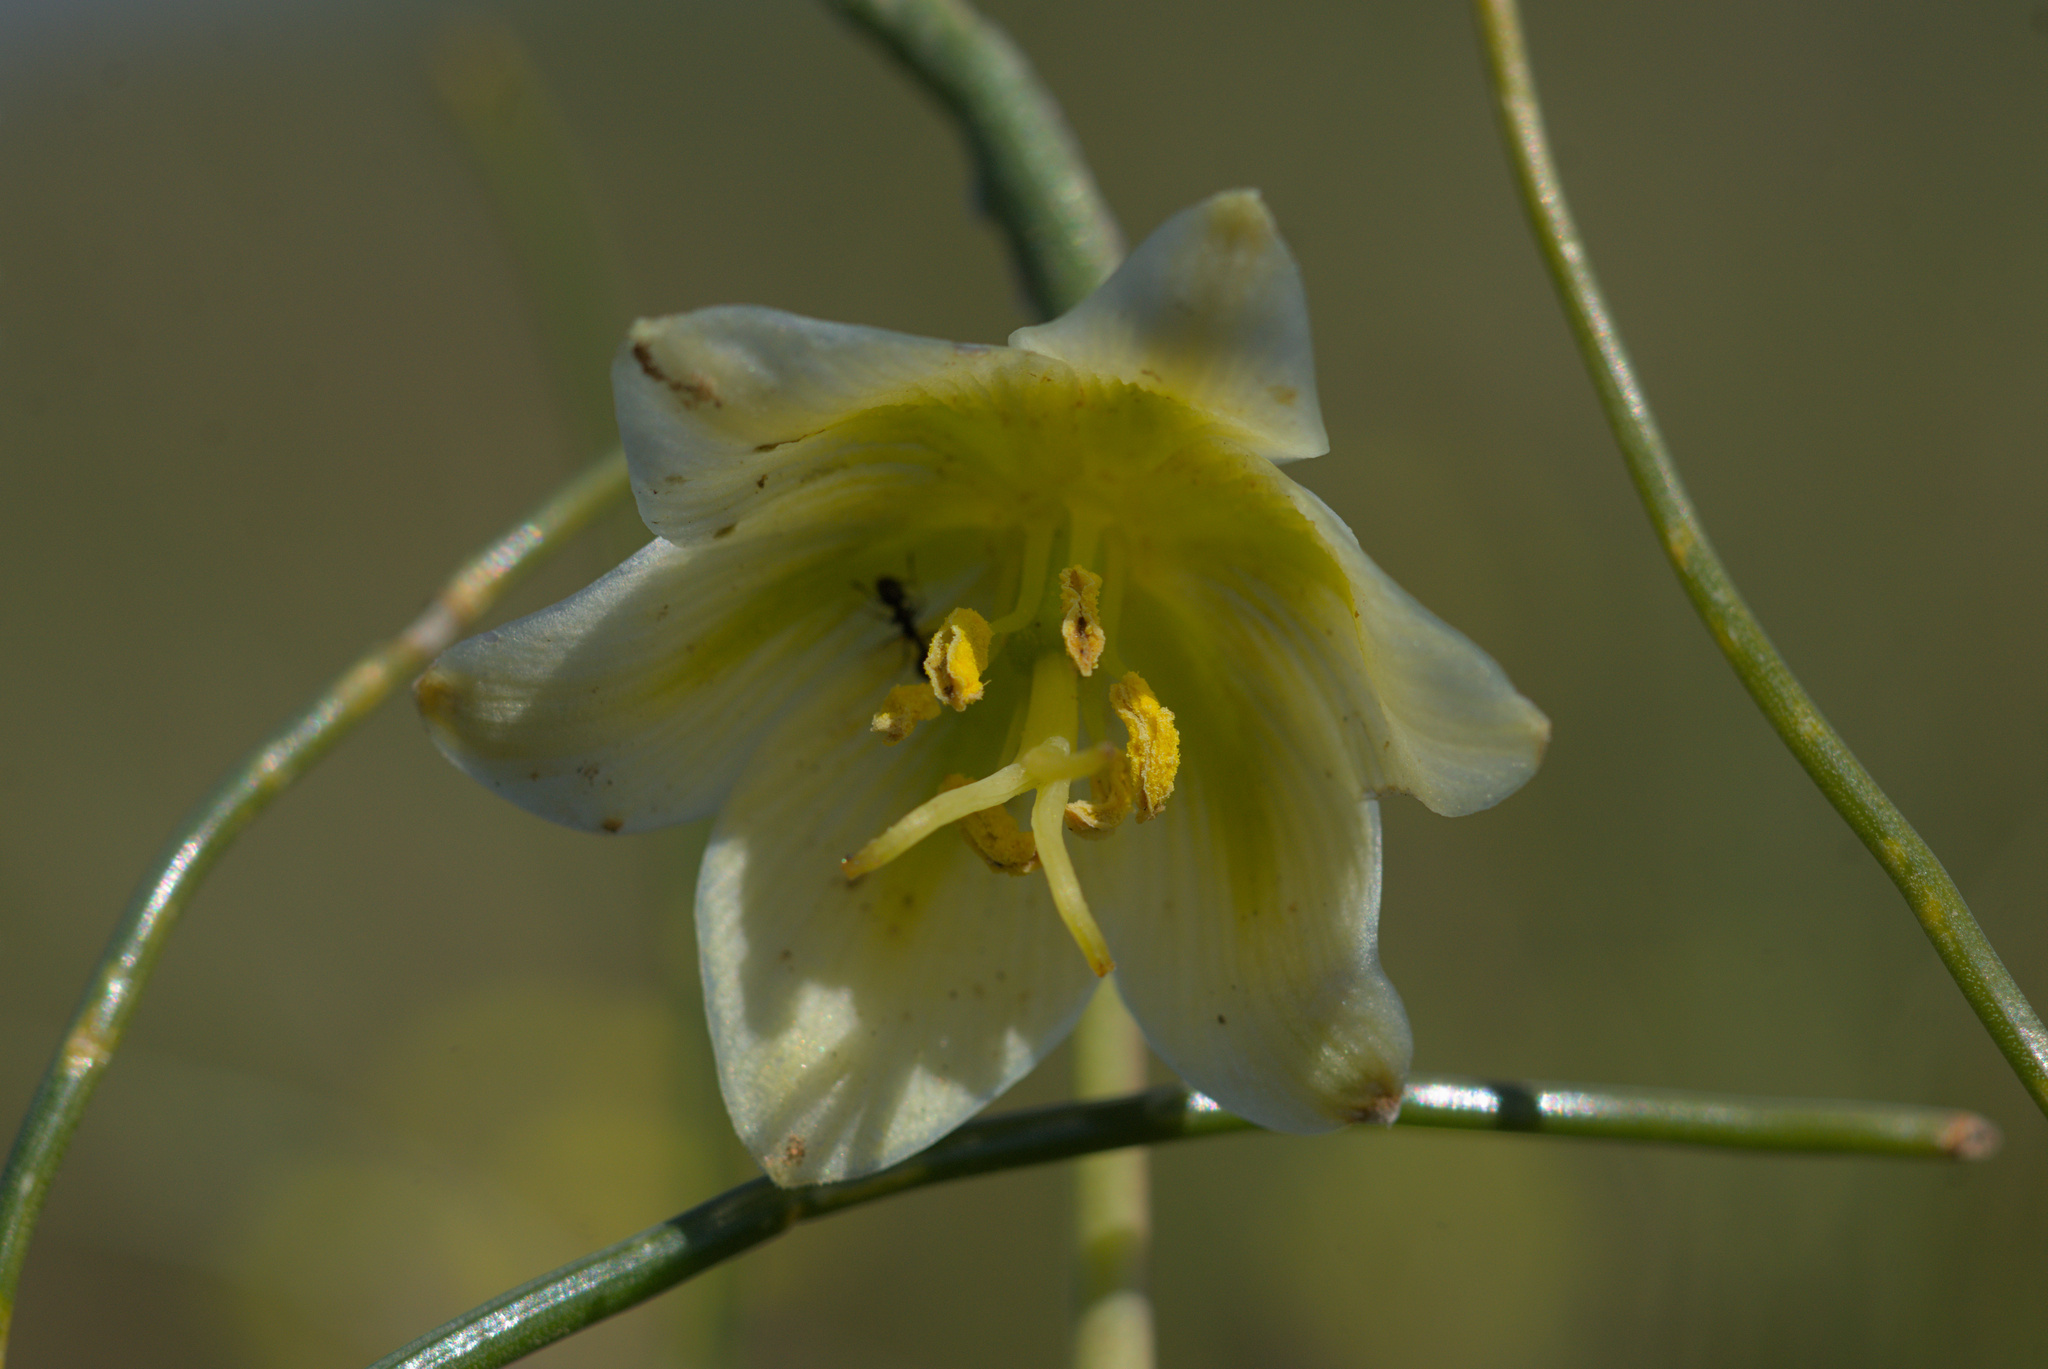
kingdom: Plantae
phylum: Tracheophyta
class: Liliopsida
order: Liliales
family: Liliaceae
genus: Fritillaria
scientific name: Fritillaria liliacea
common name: Fragrant fritillary
